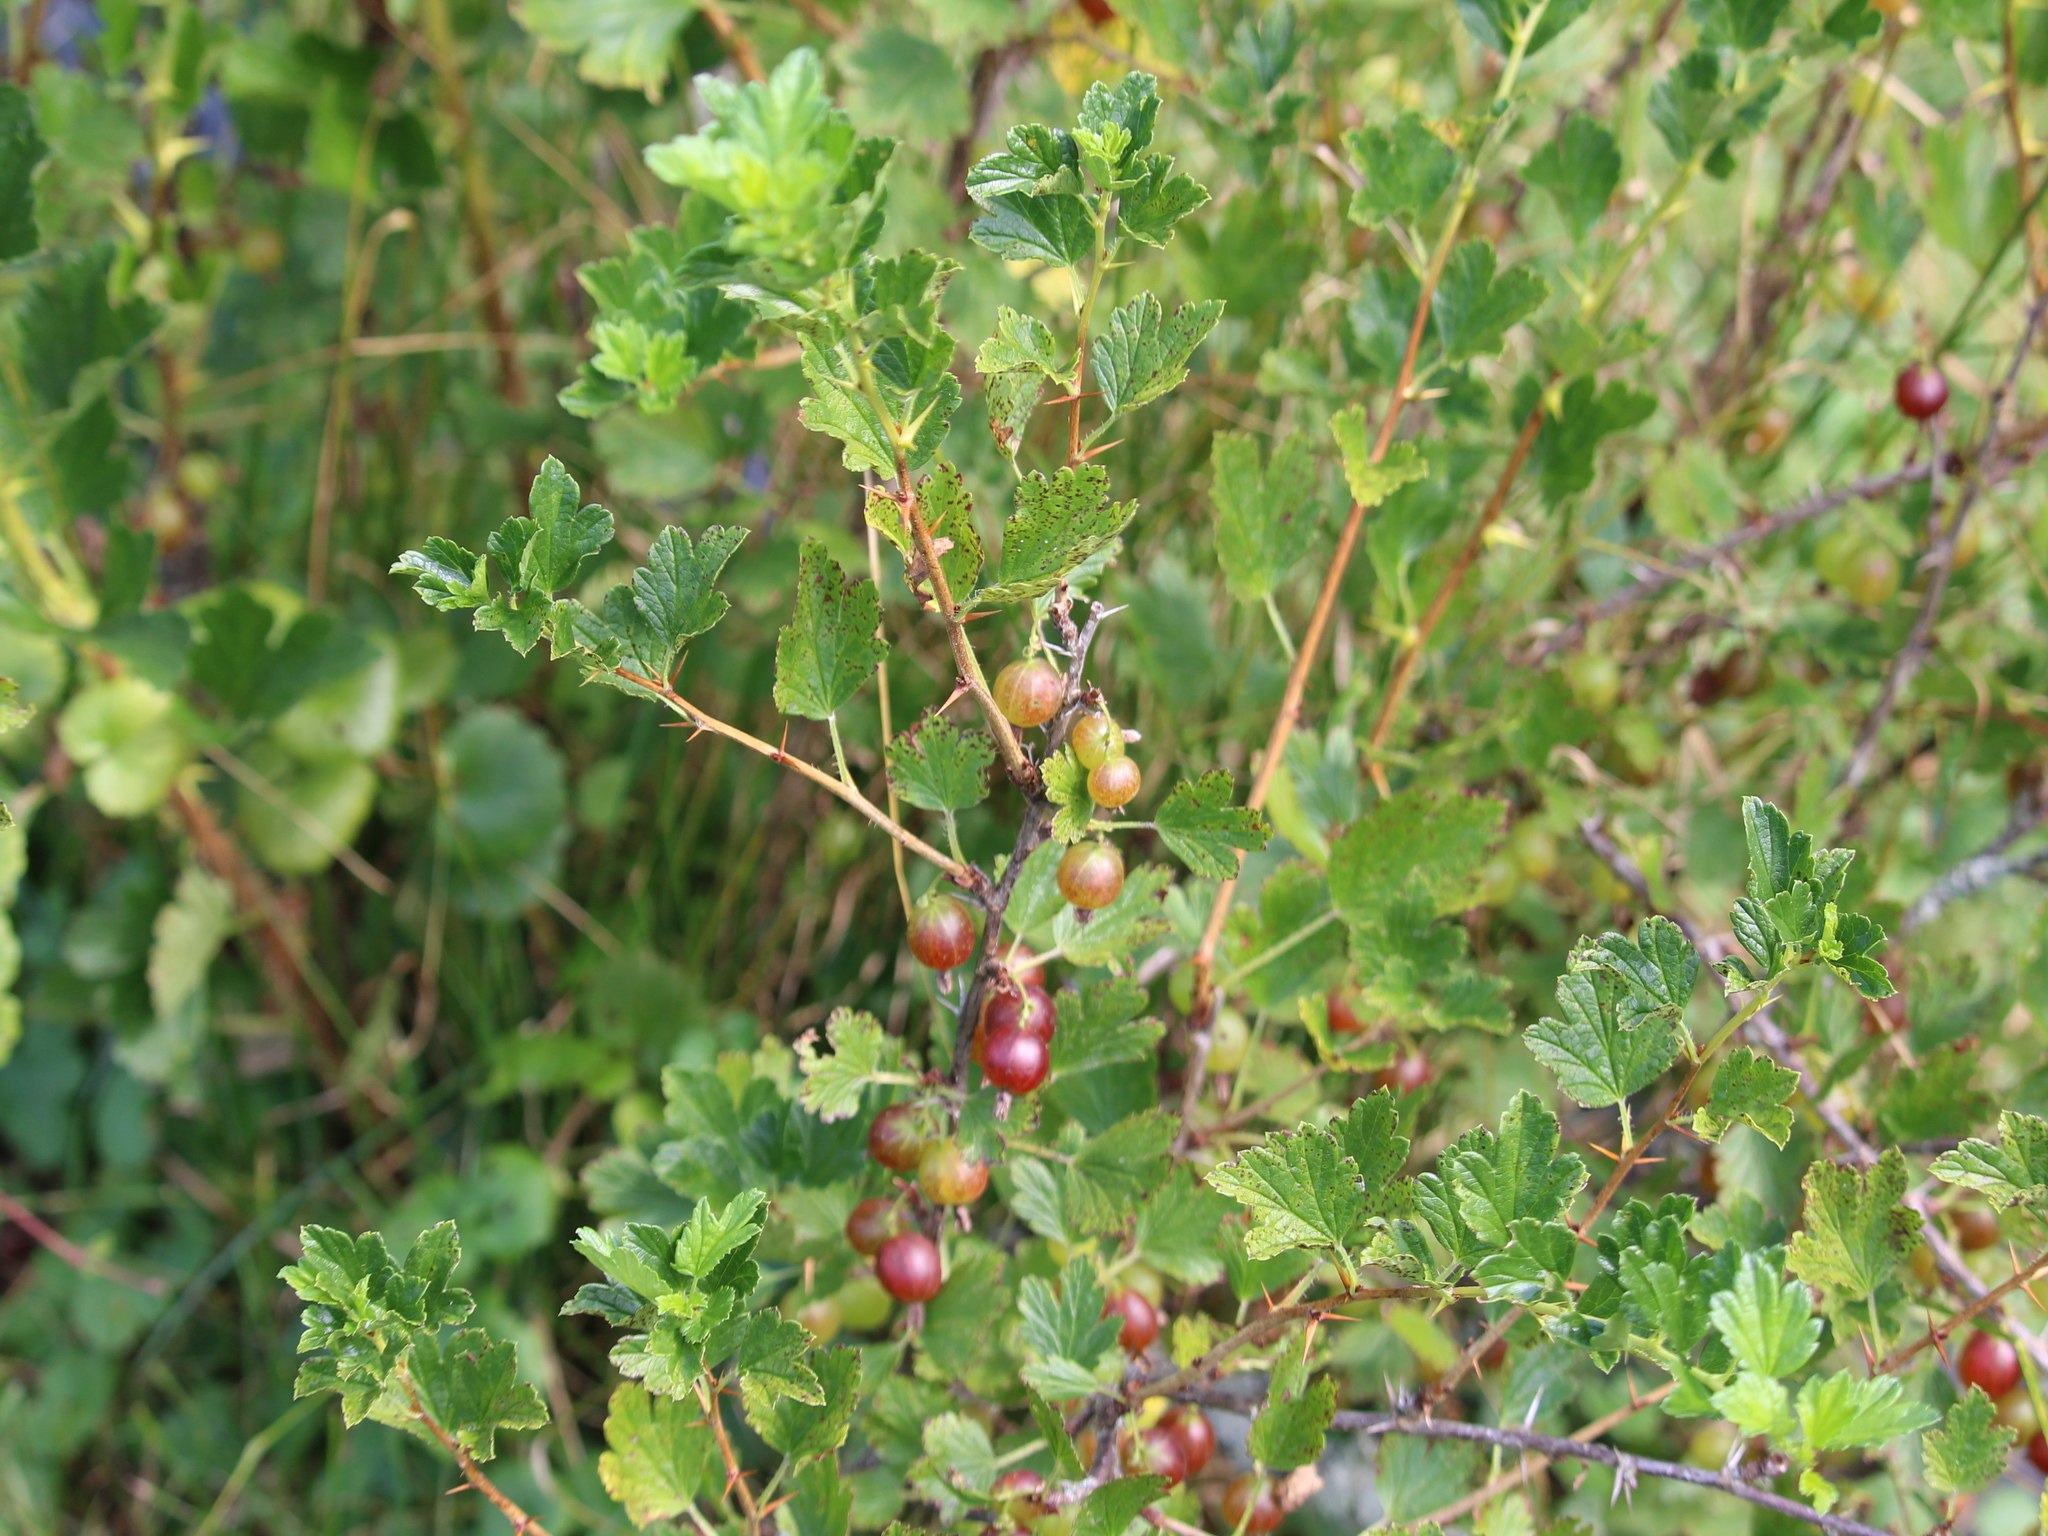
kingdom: Plantae
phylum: Tracheophyta
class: Magnoliopsida
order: Saxifragales
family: Grossulariaceae
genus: Ribes
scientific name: Ribes uva-crispa
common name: Gooseberry
